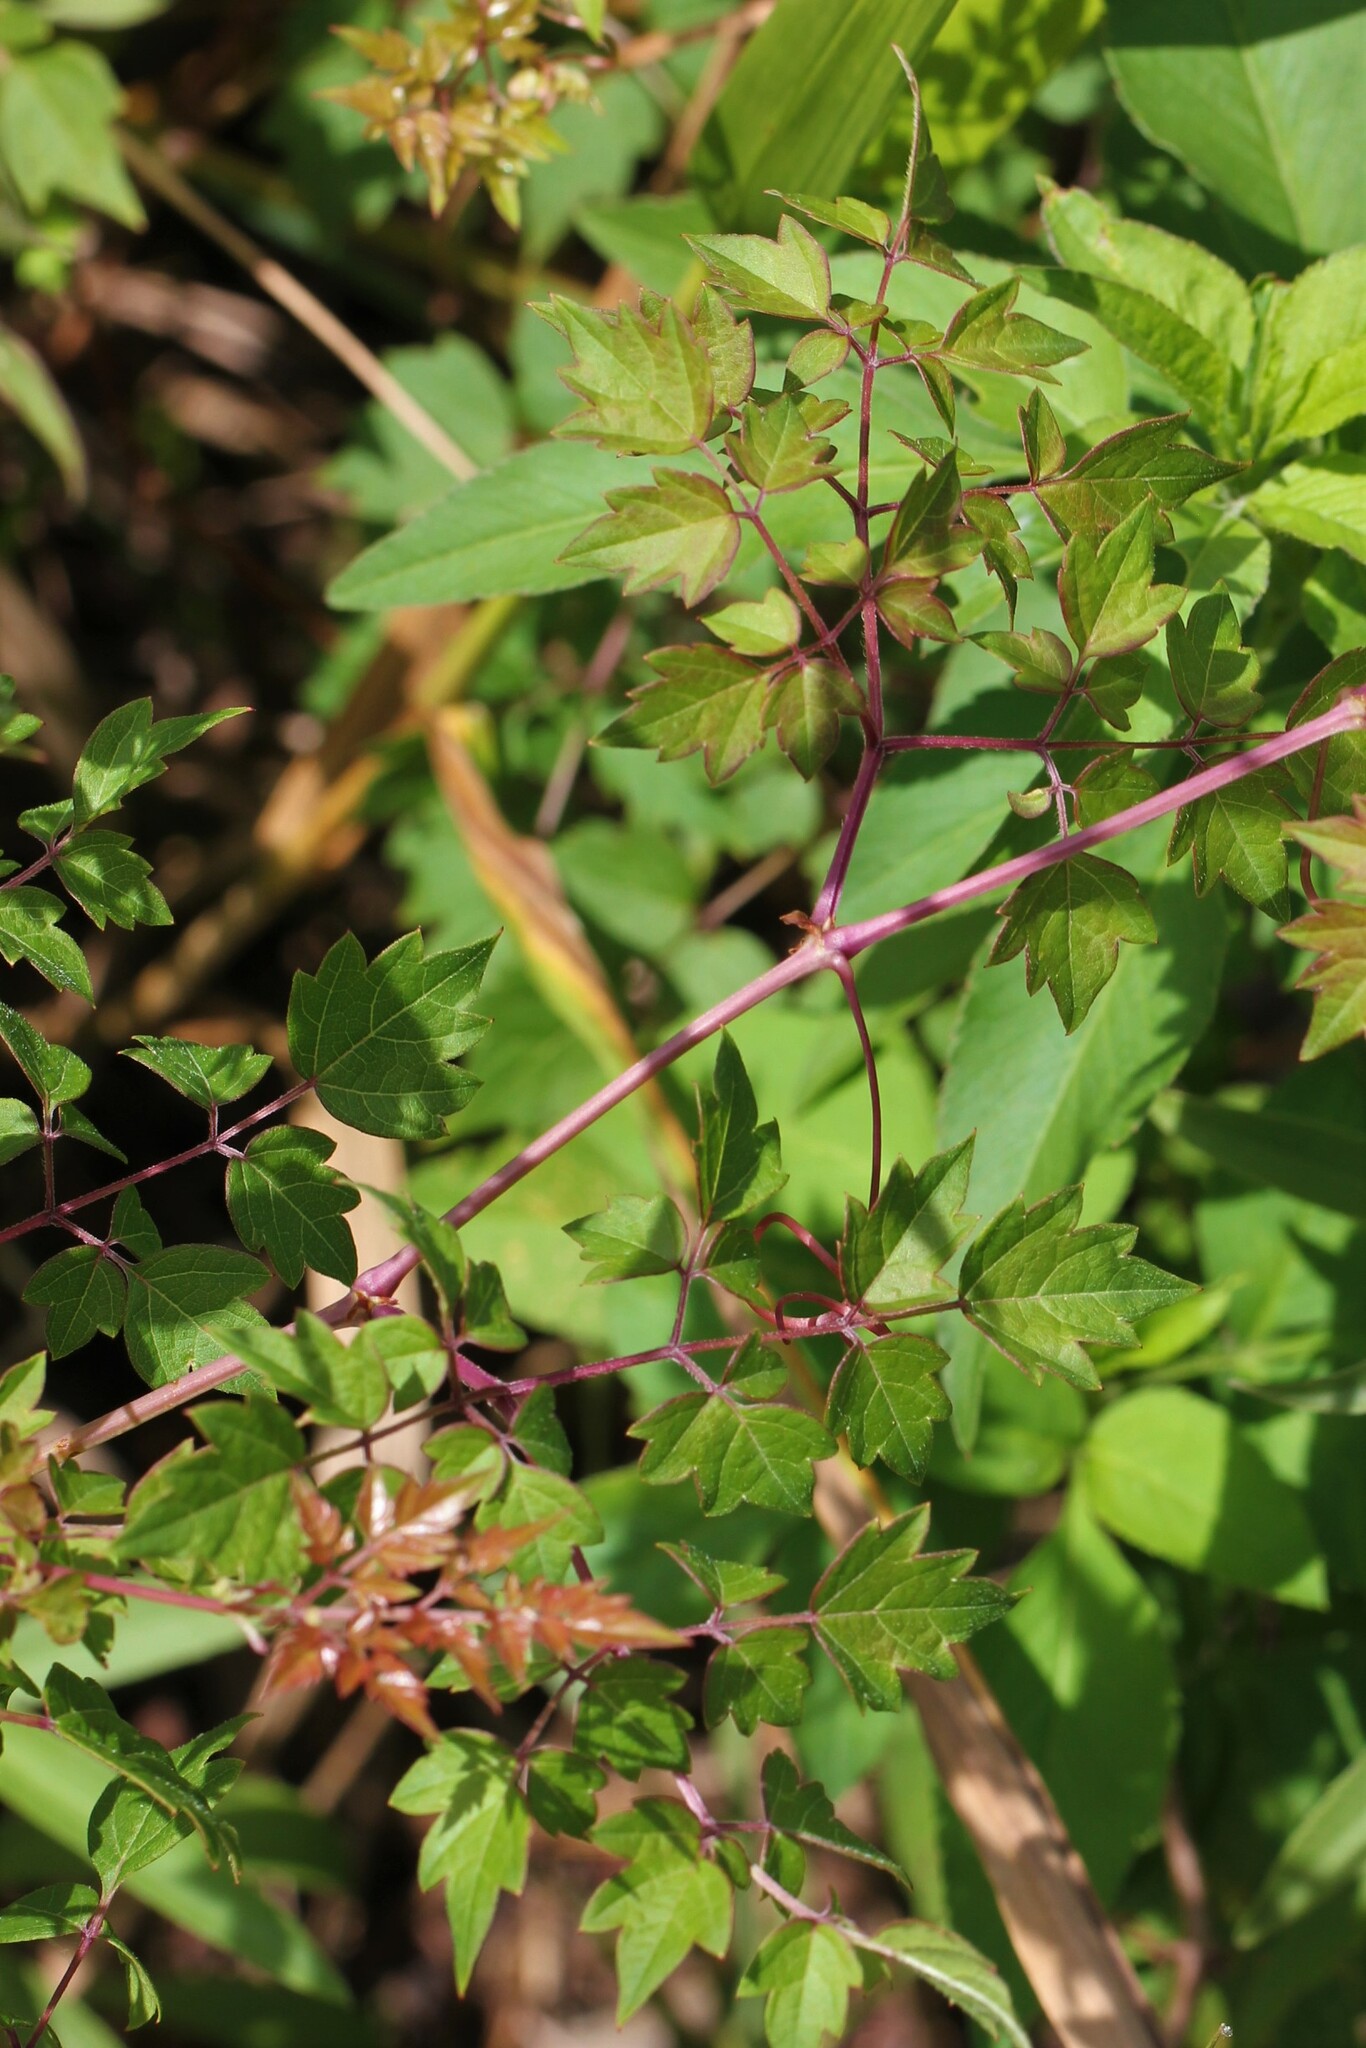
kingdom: Plantae
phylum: Tracheophyta
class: Magnoliopsida
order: Vitales
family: Vitaceae
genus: Nekemias
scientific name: Nekemias arborea
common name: Peppervine
